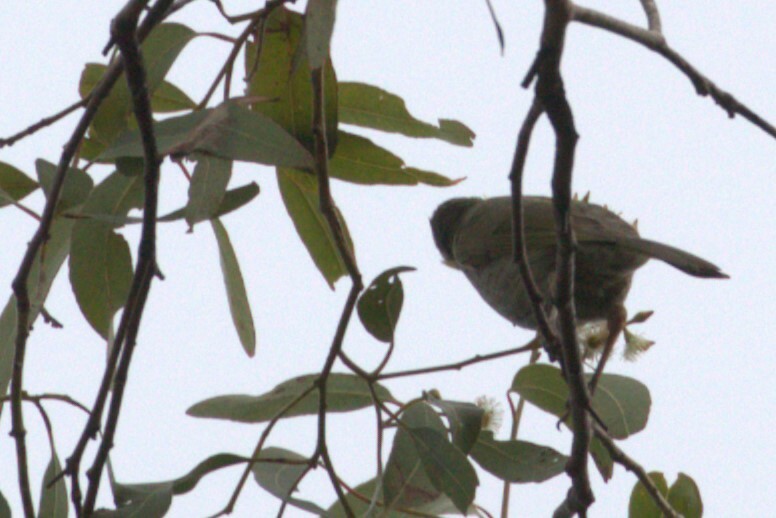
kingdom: Animalia
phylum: Chordata
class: Aves
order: Passeriformes
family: Meliphagidae
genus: Meliphaga
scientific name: Meliphaga lewinii
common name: Lewin's honeyeater
